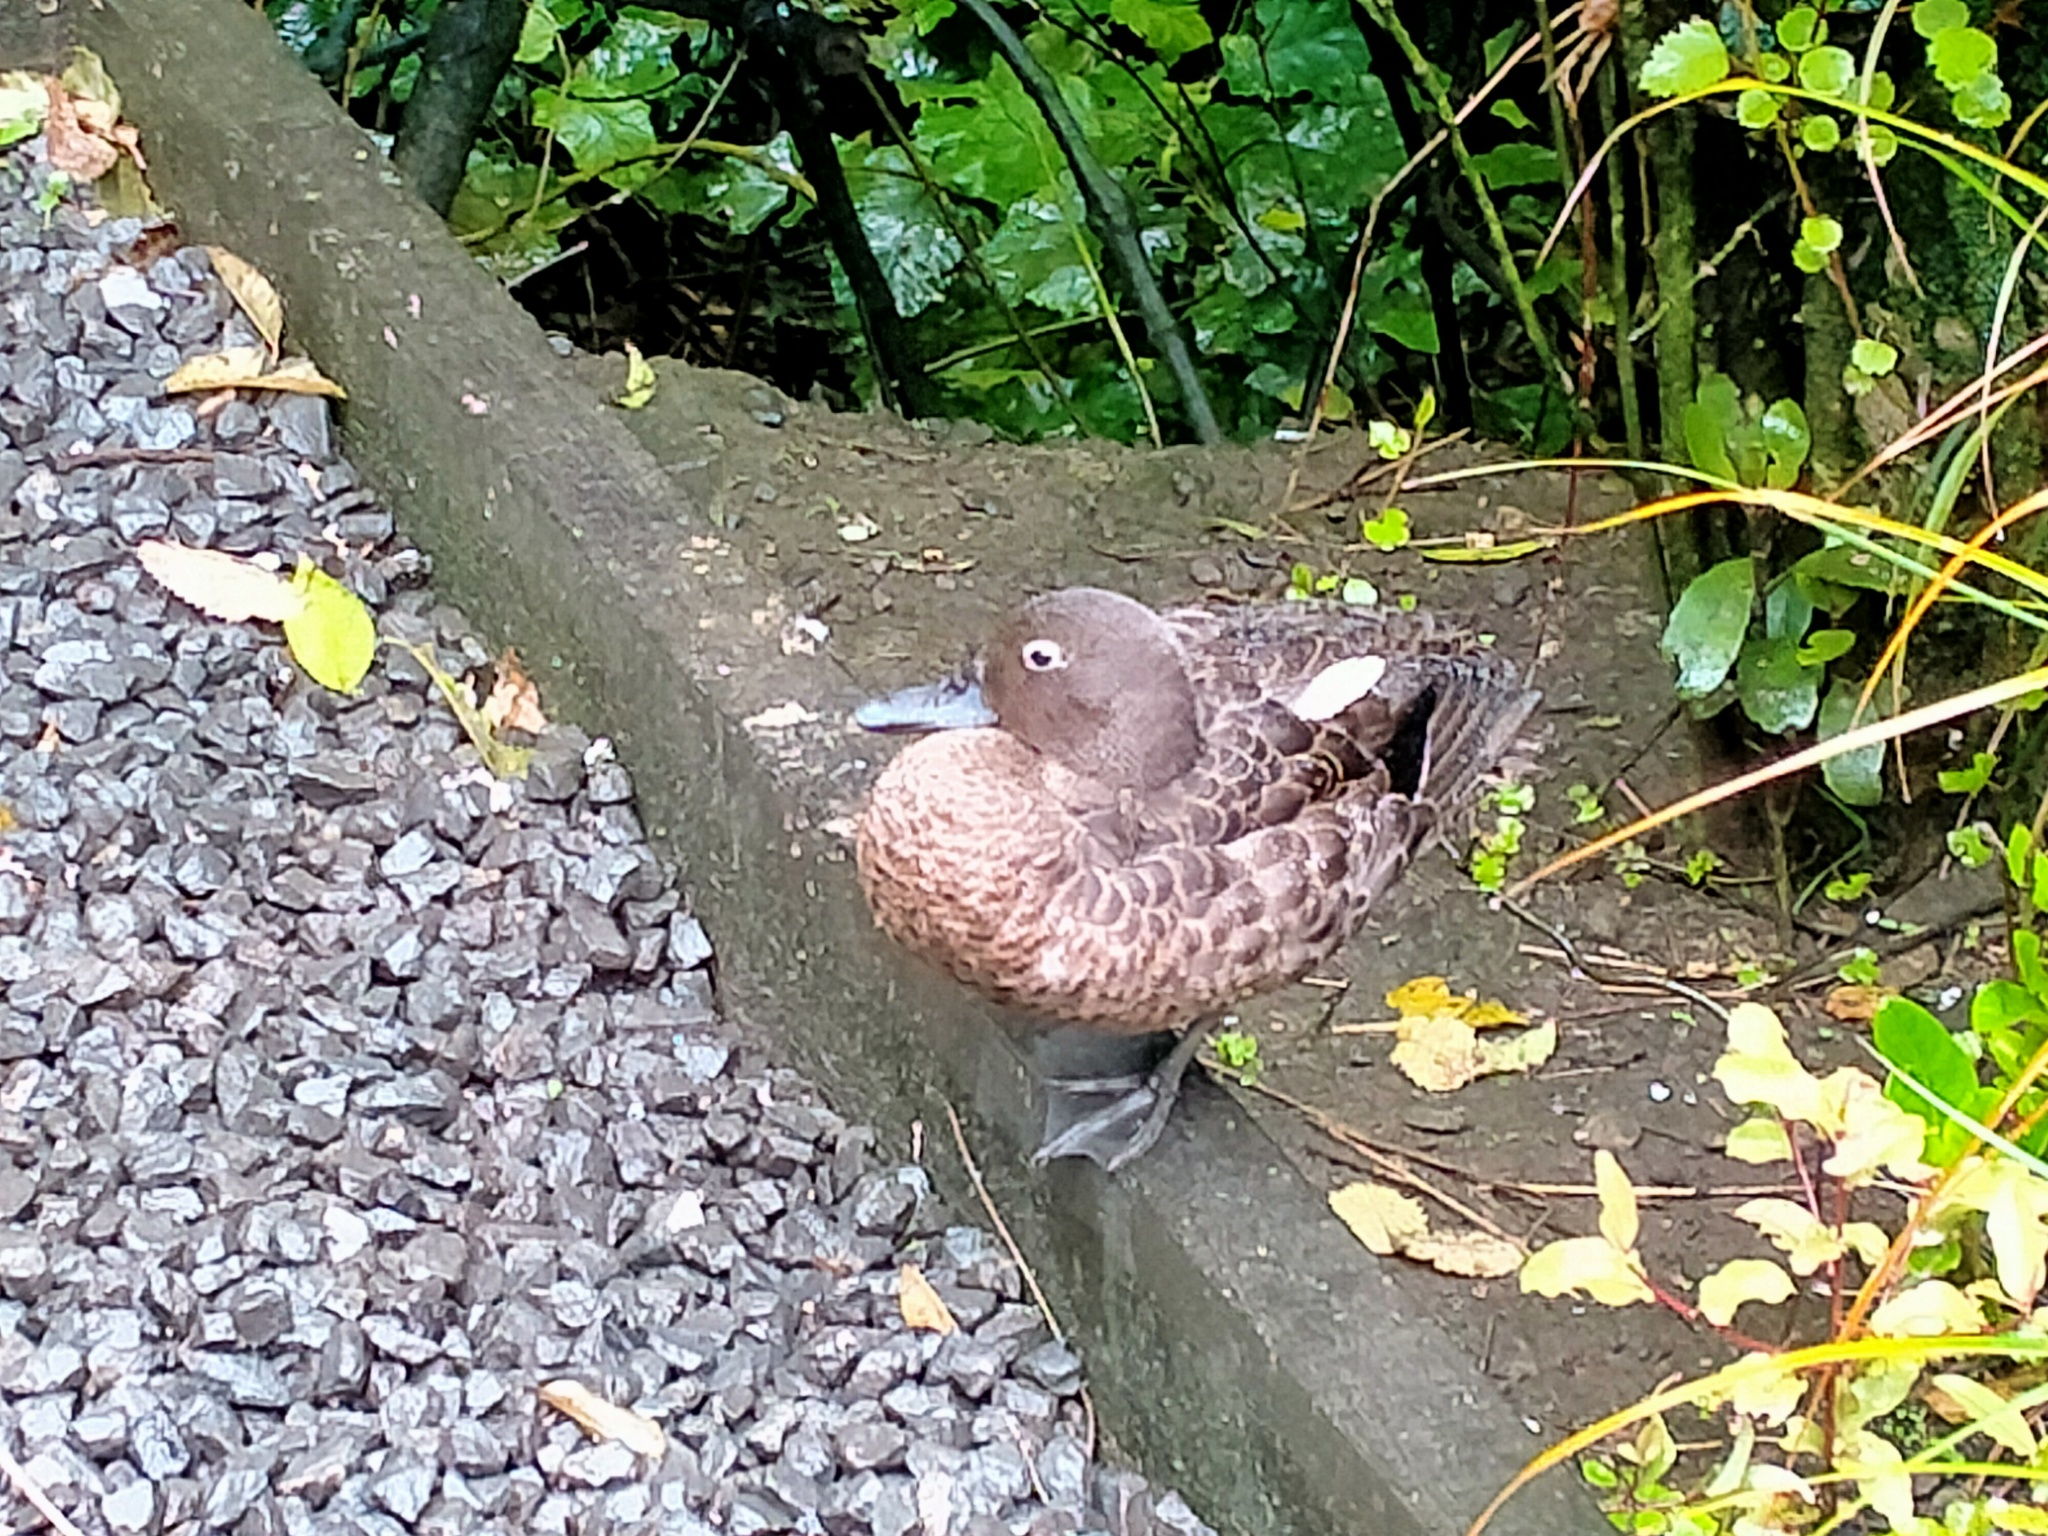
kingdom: Animalia
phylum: Chordata
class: Aves
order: Anseriformes
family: Anatidae
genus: Anas
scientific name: Anas chlorotis
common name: Brown teal
